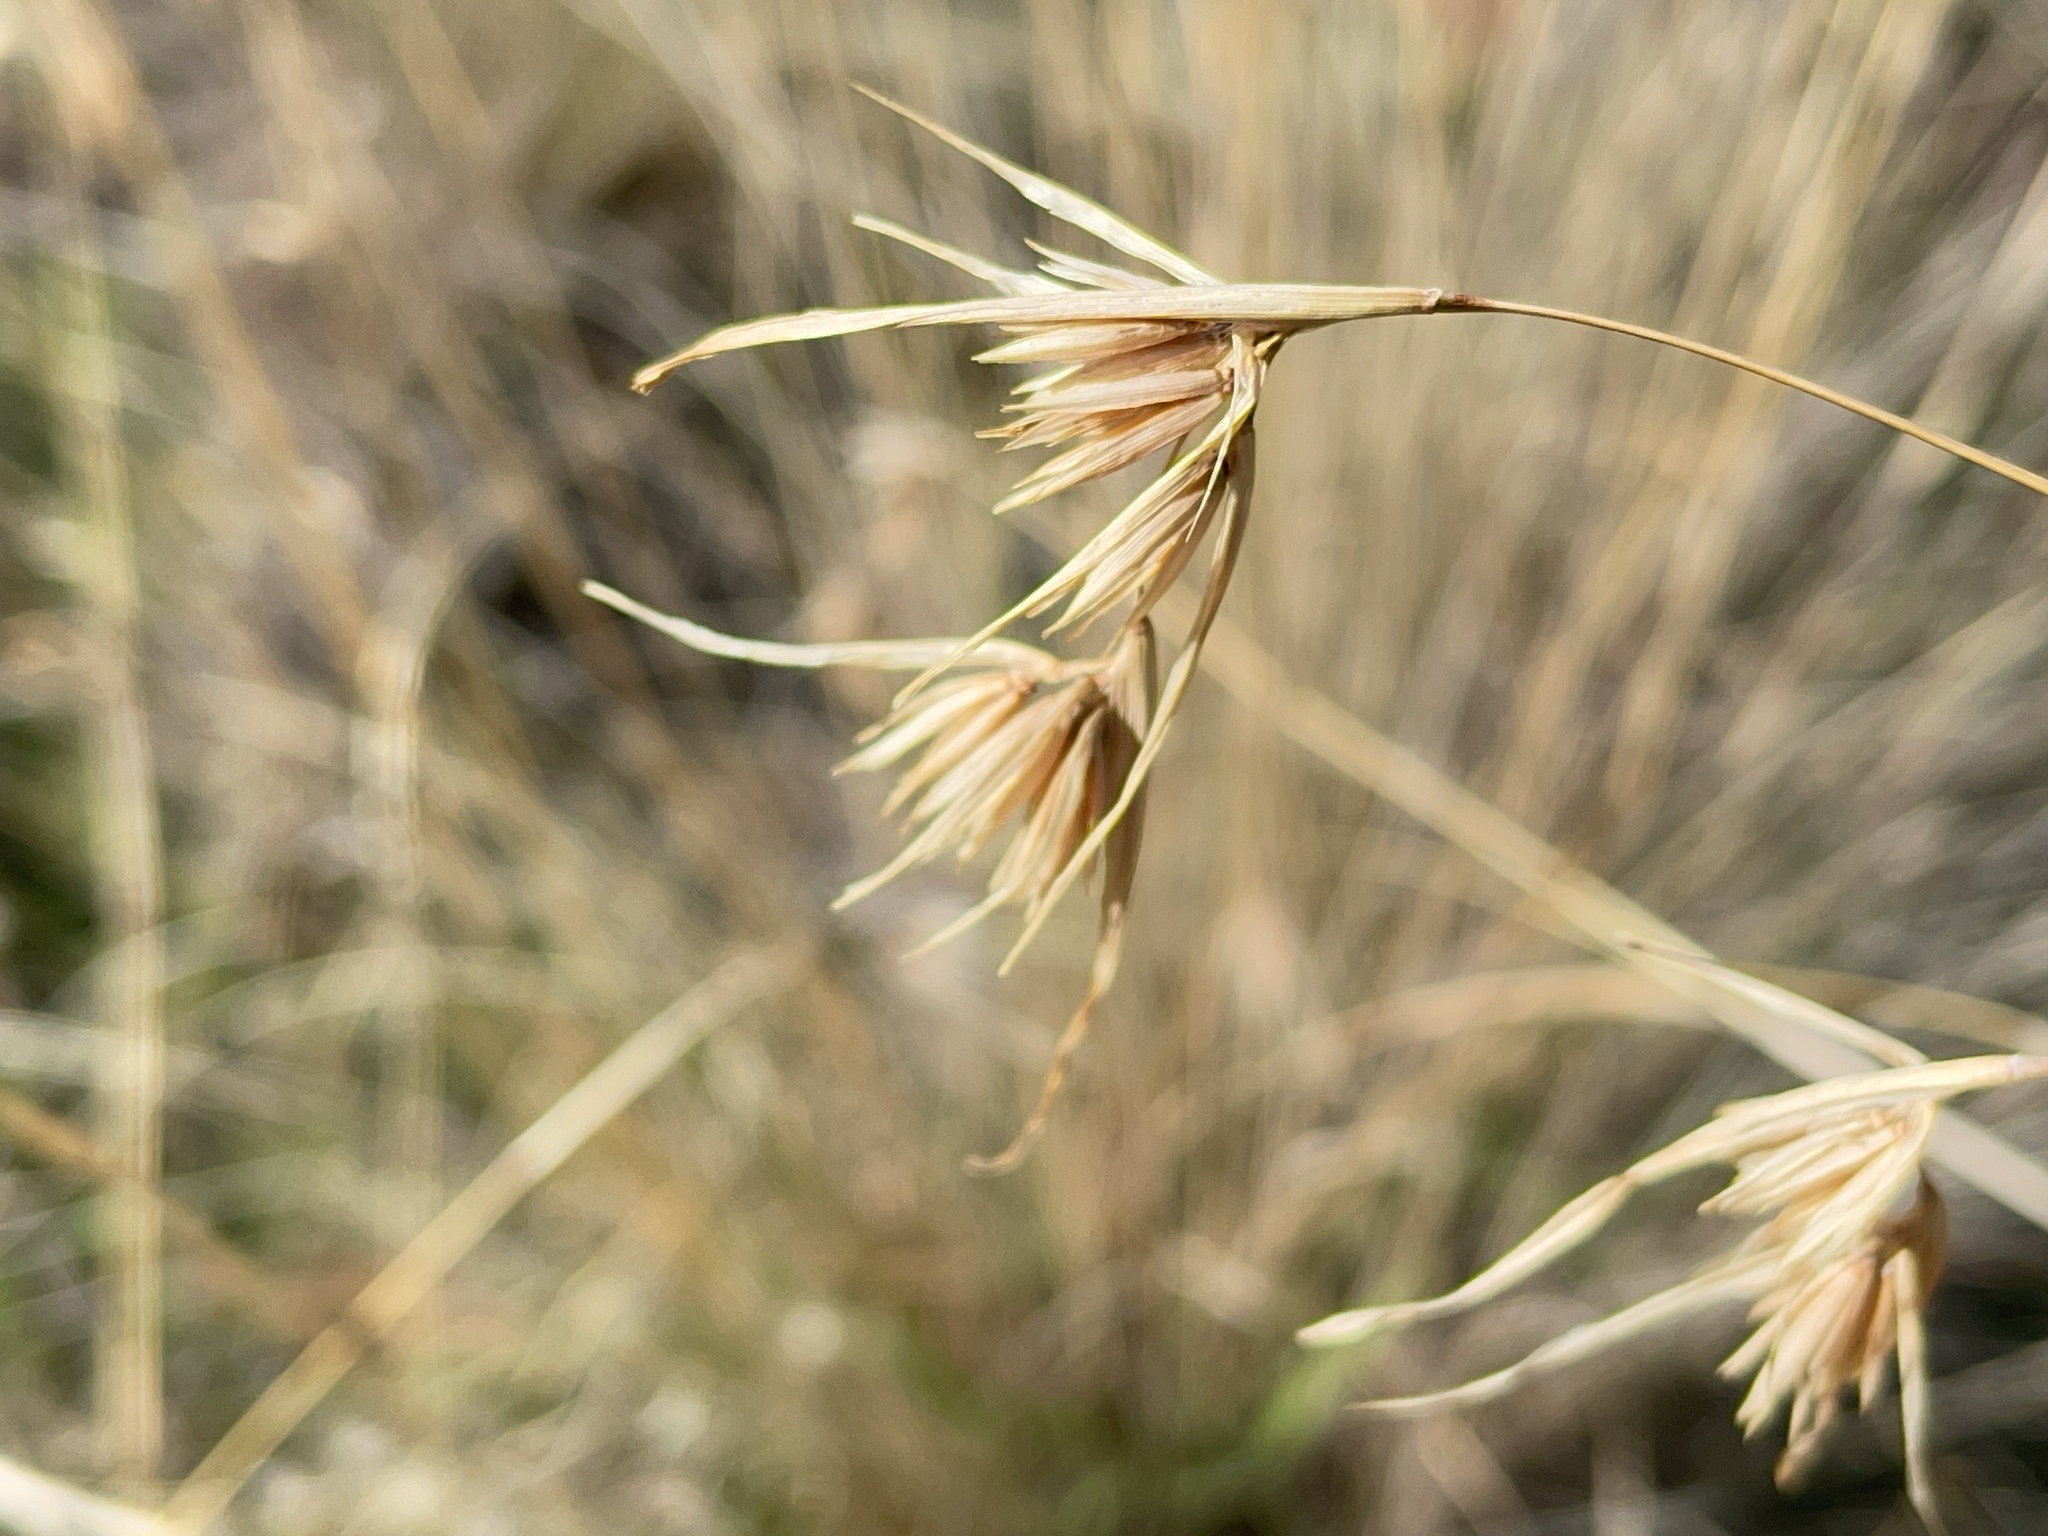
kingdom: Plantae
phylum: Tracheophyta
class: Liliopsida
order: Poales
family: Poaceae
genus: Themeda
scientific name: Themeda triandra
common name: Kangaroo grass
